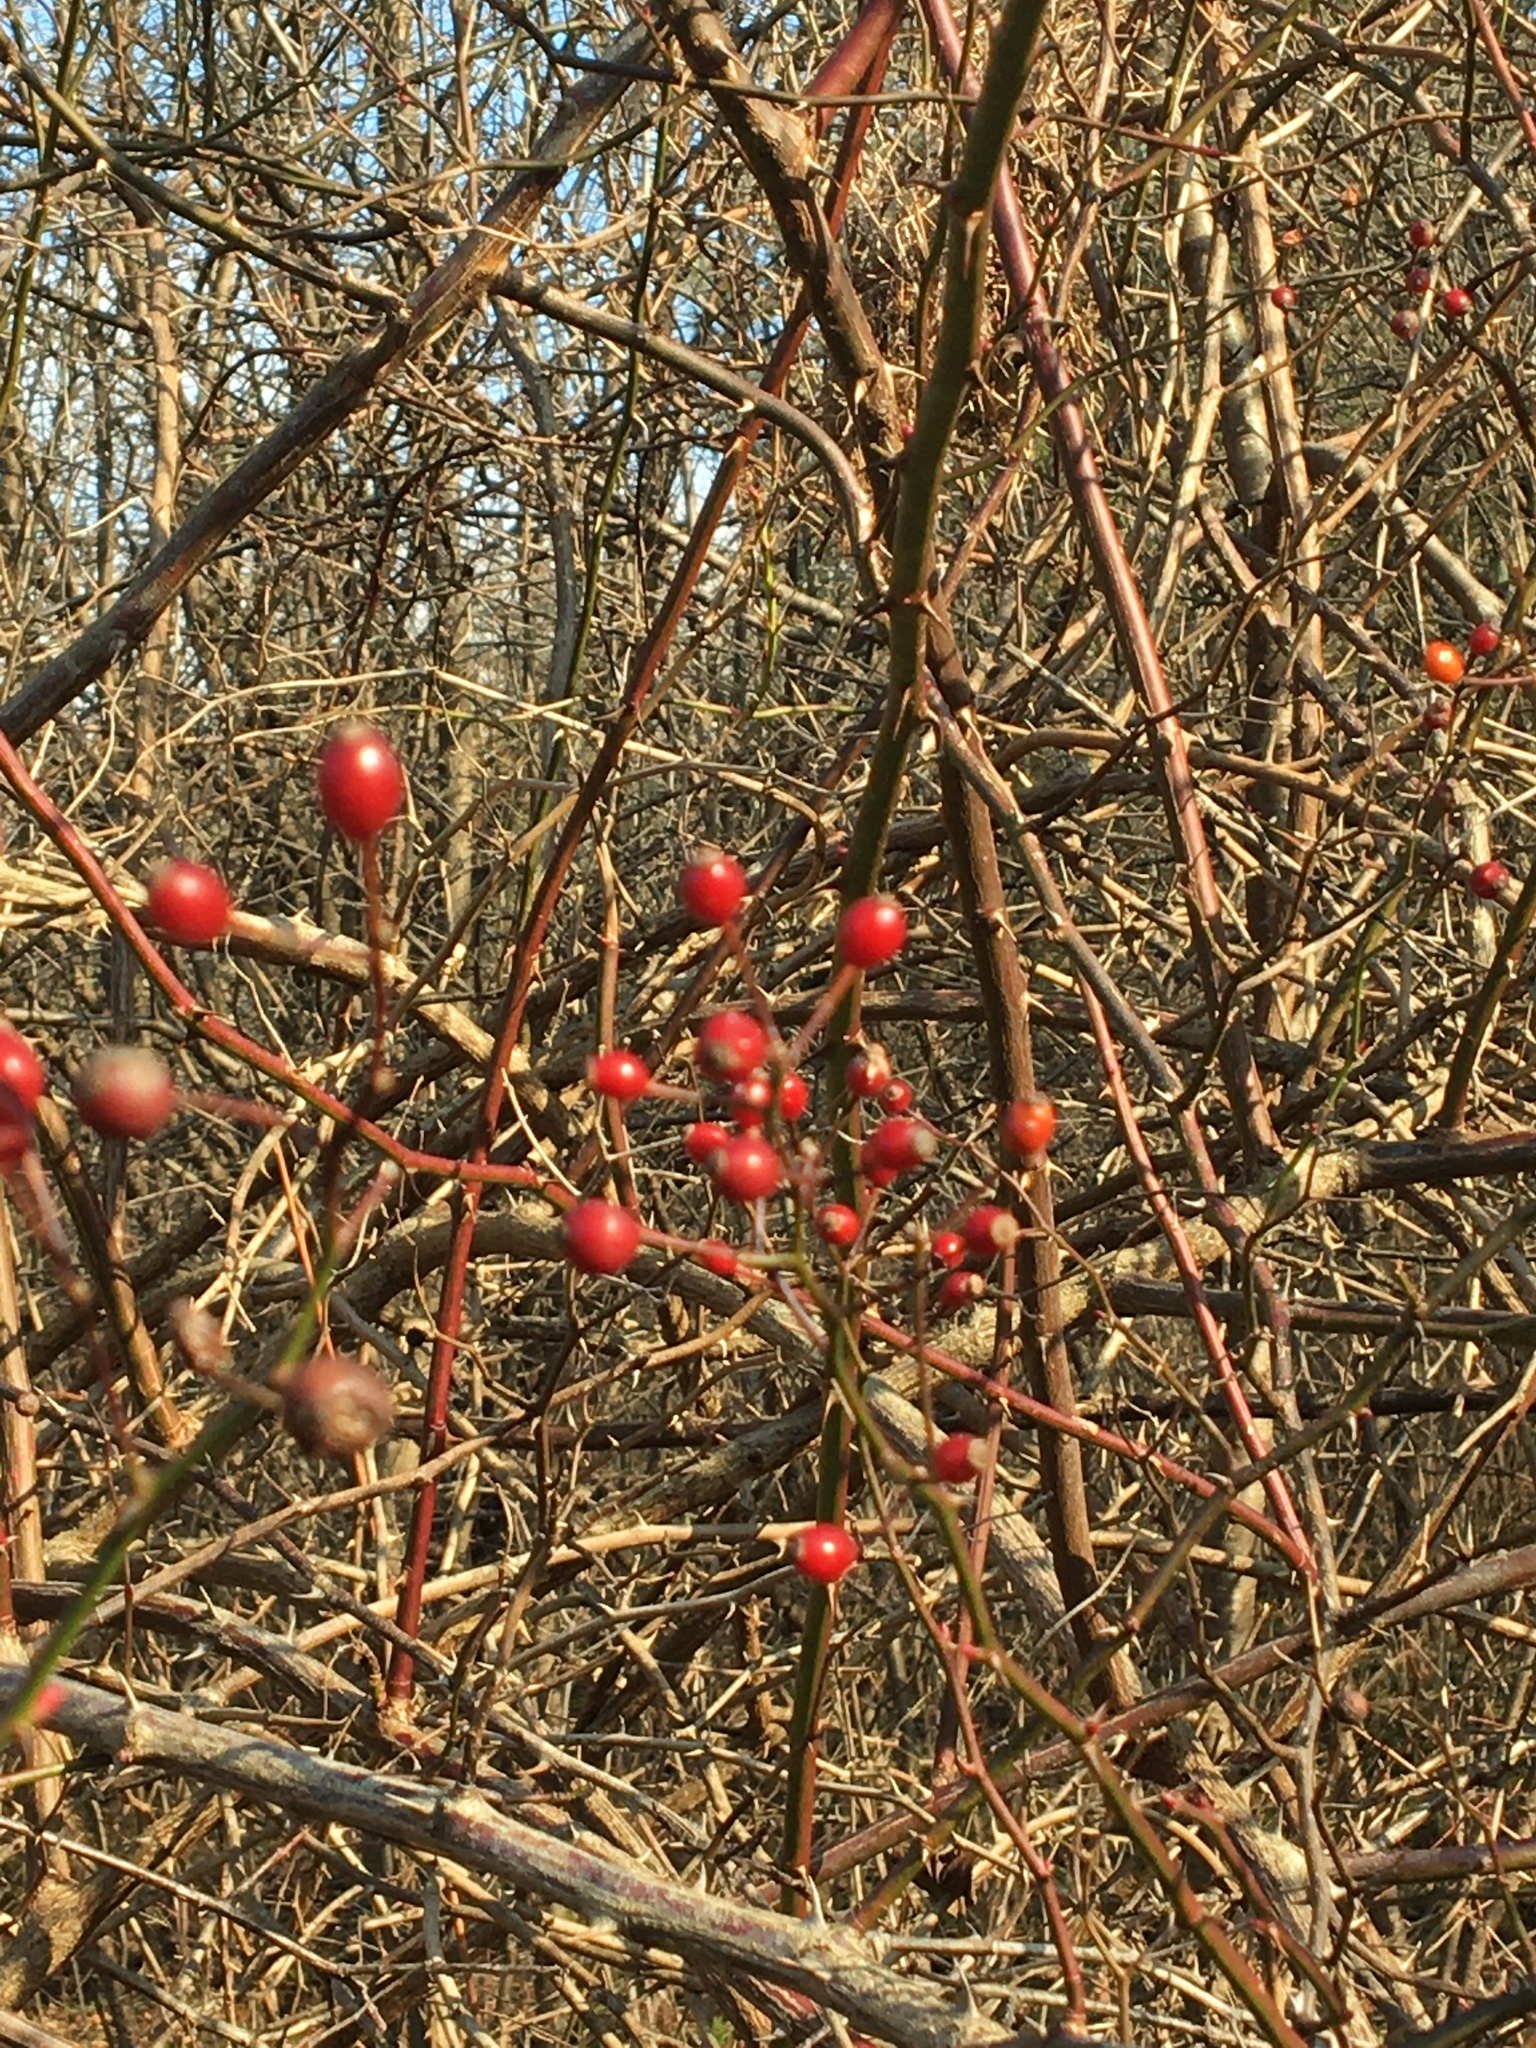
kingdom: Plantae
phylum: Tracheophyta
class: Magnoliopsida
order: Rosales
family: Rosaceae
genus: Rosa
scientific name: Rosa multiflora
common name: Multiflora rose
